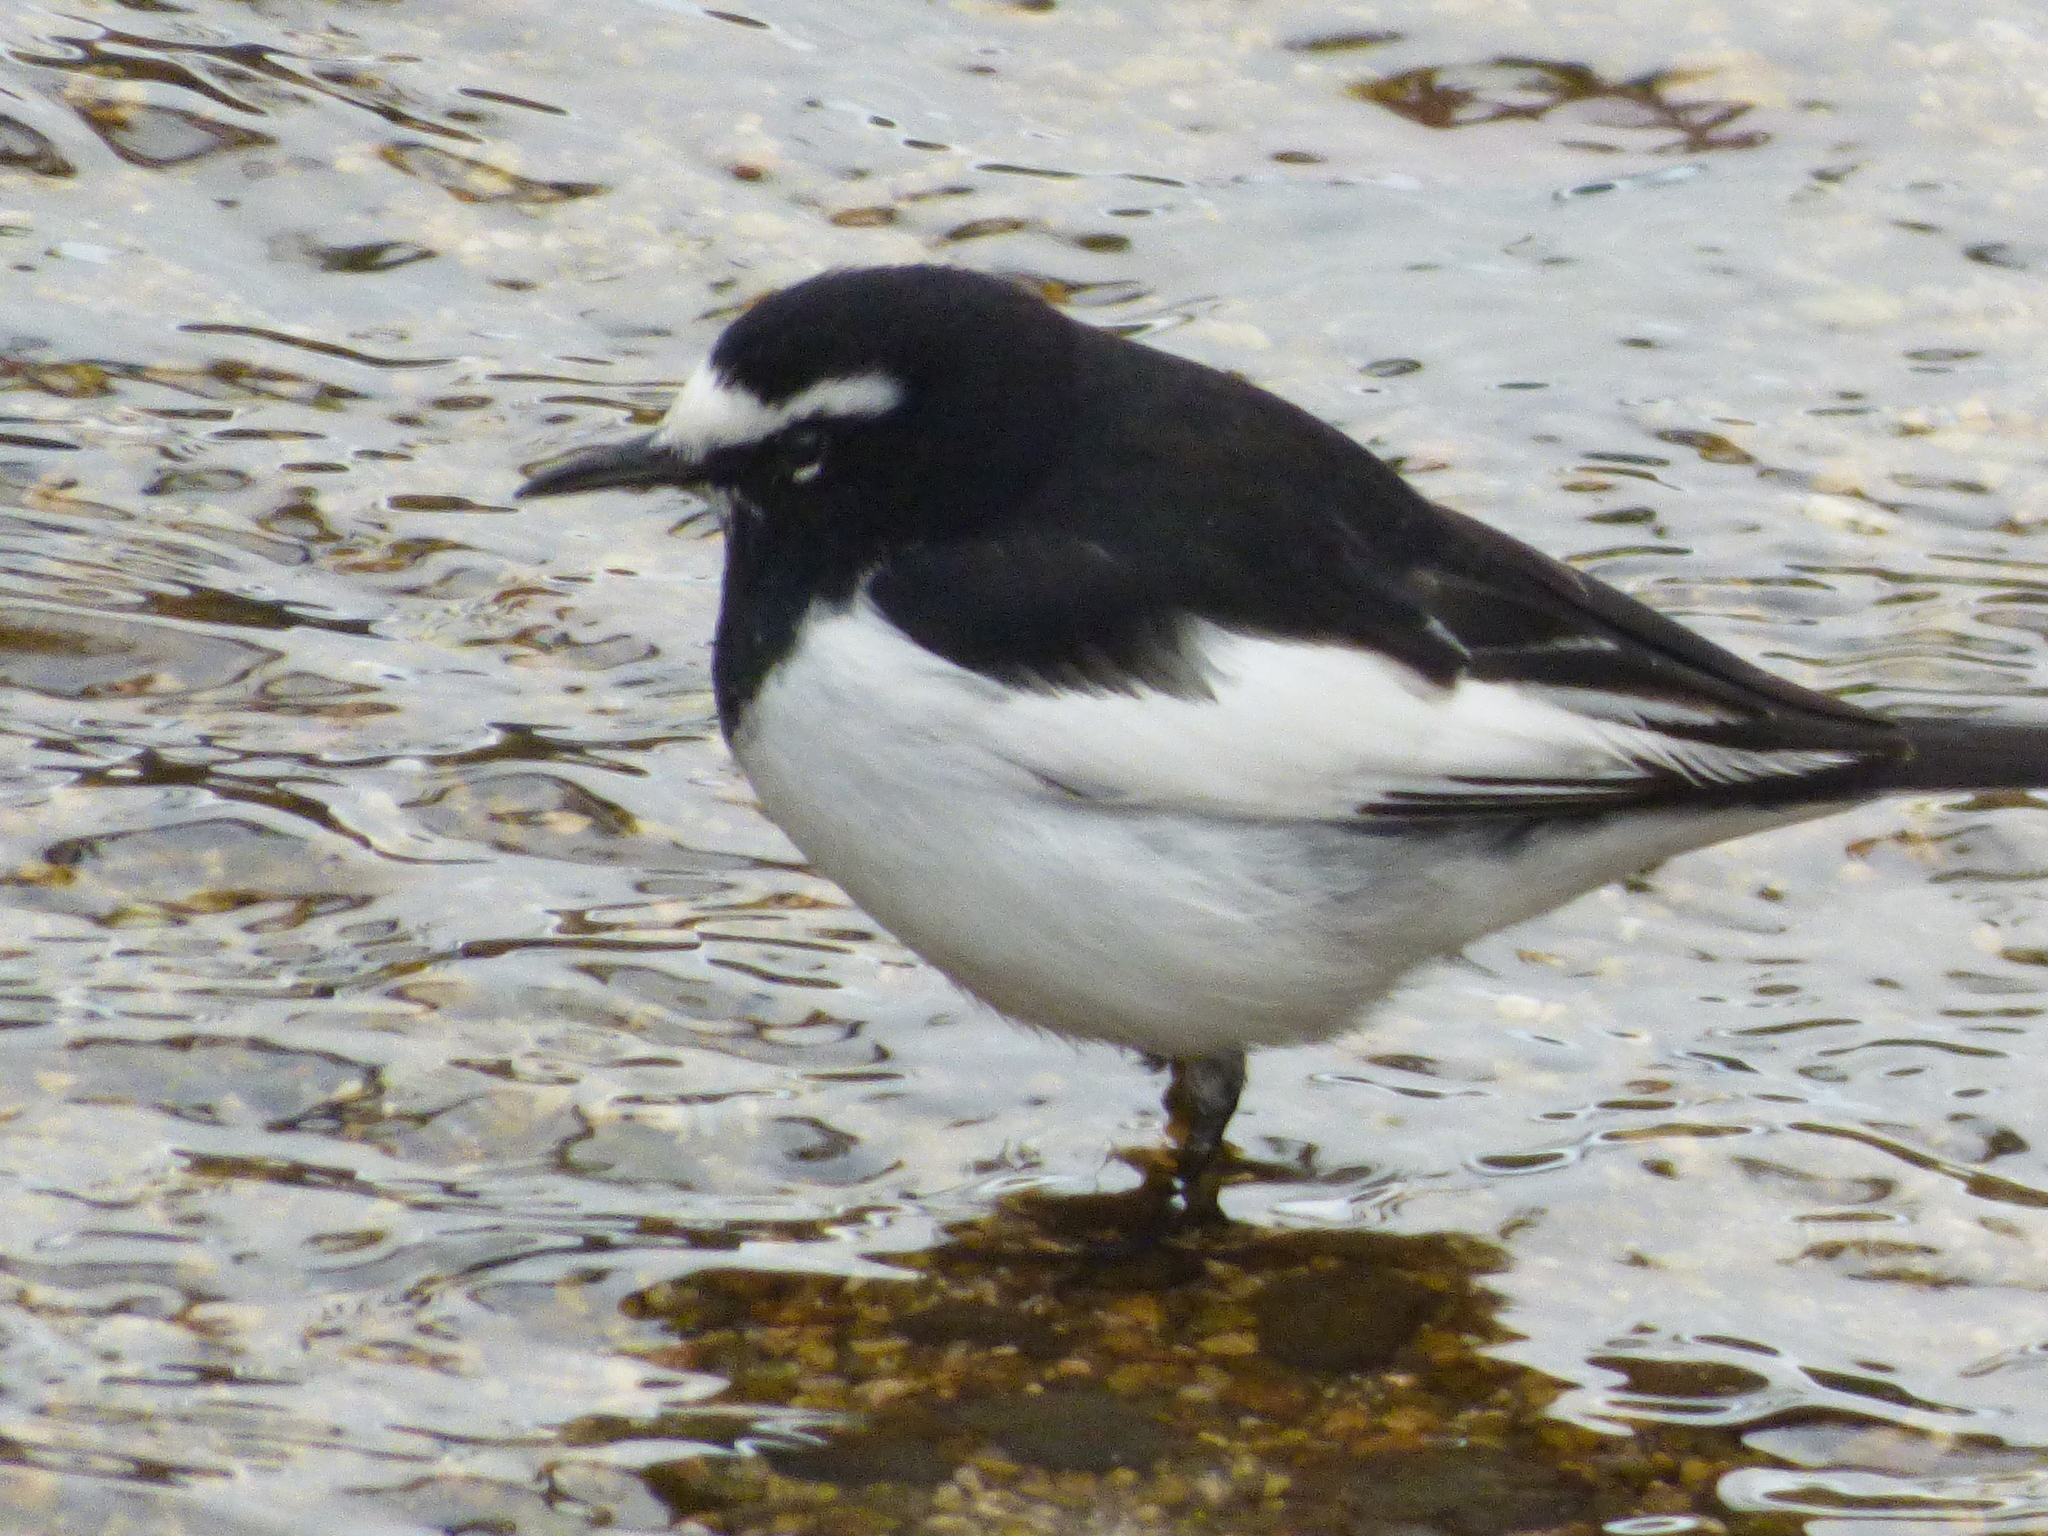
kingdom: Animalia
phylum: Chordata
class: Aves
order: Passeriformes
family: Motacillidae
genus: Motacilla
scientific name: Motacilla grandis
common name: Japanese wagtail
